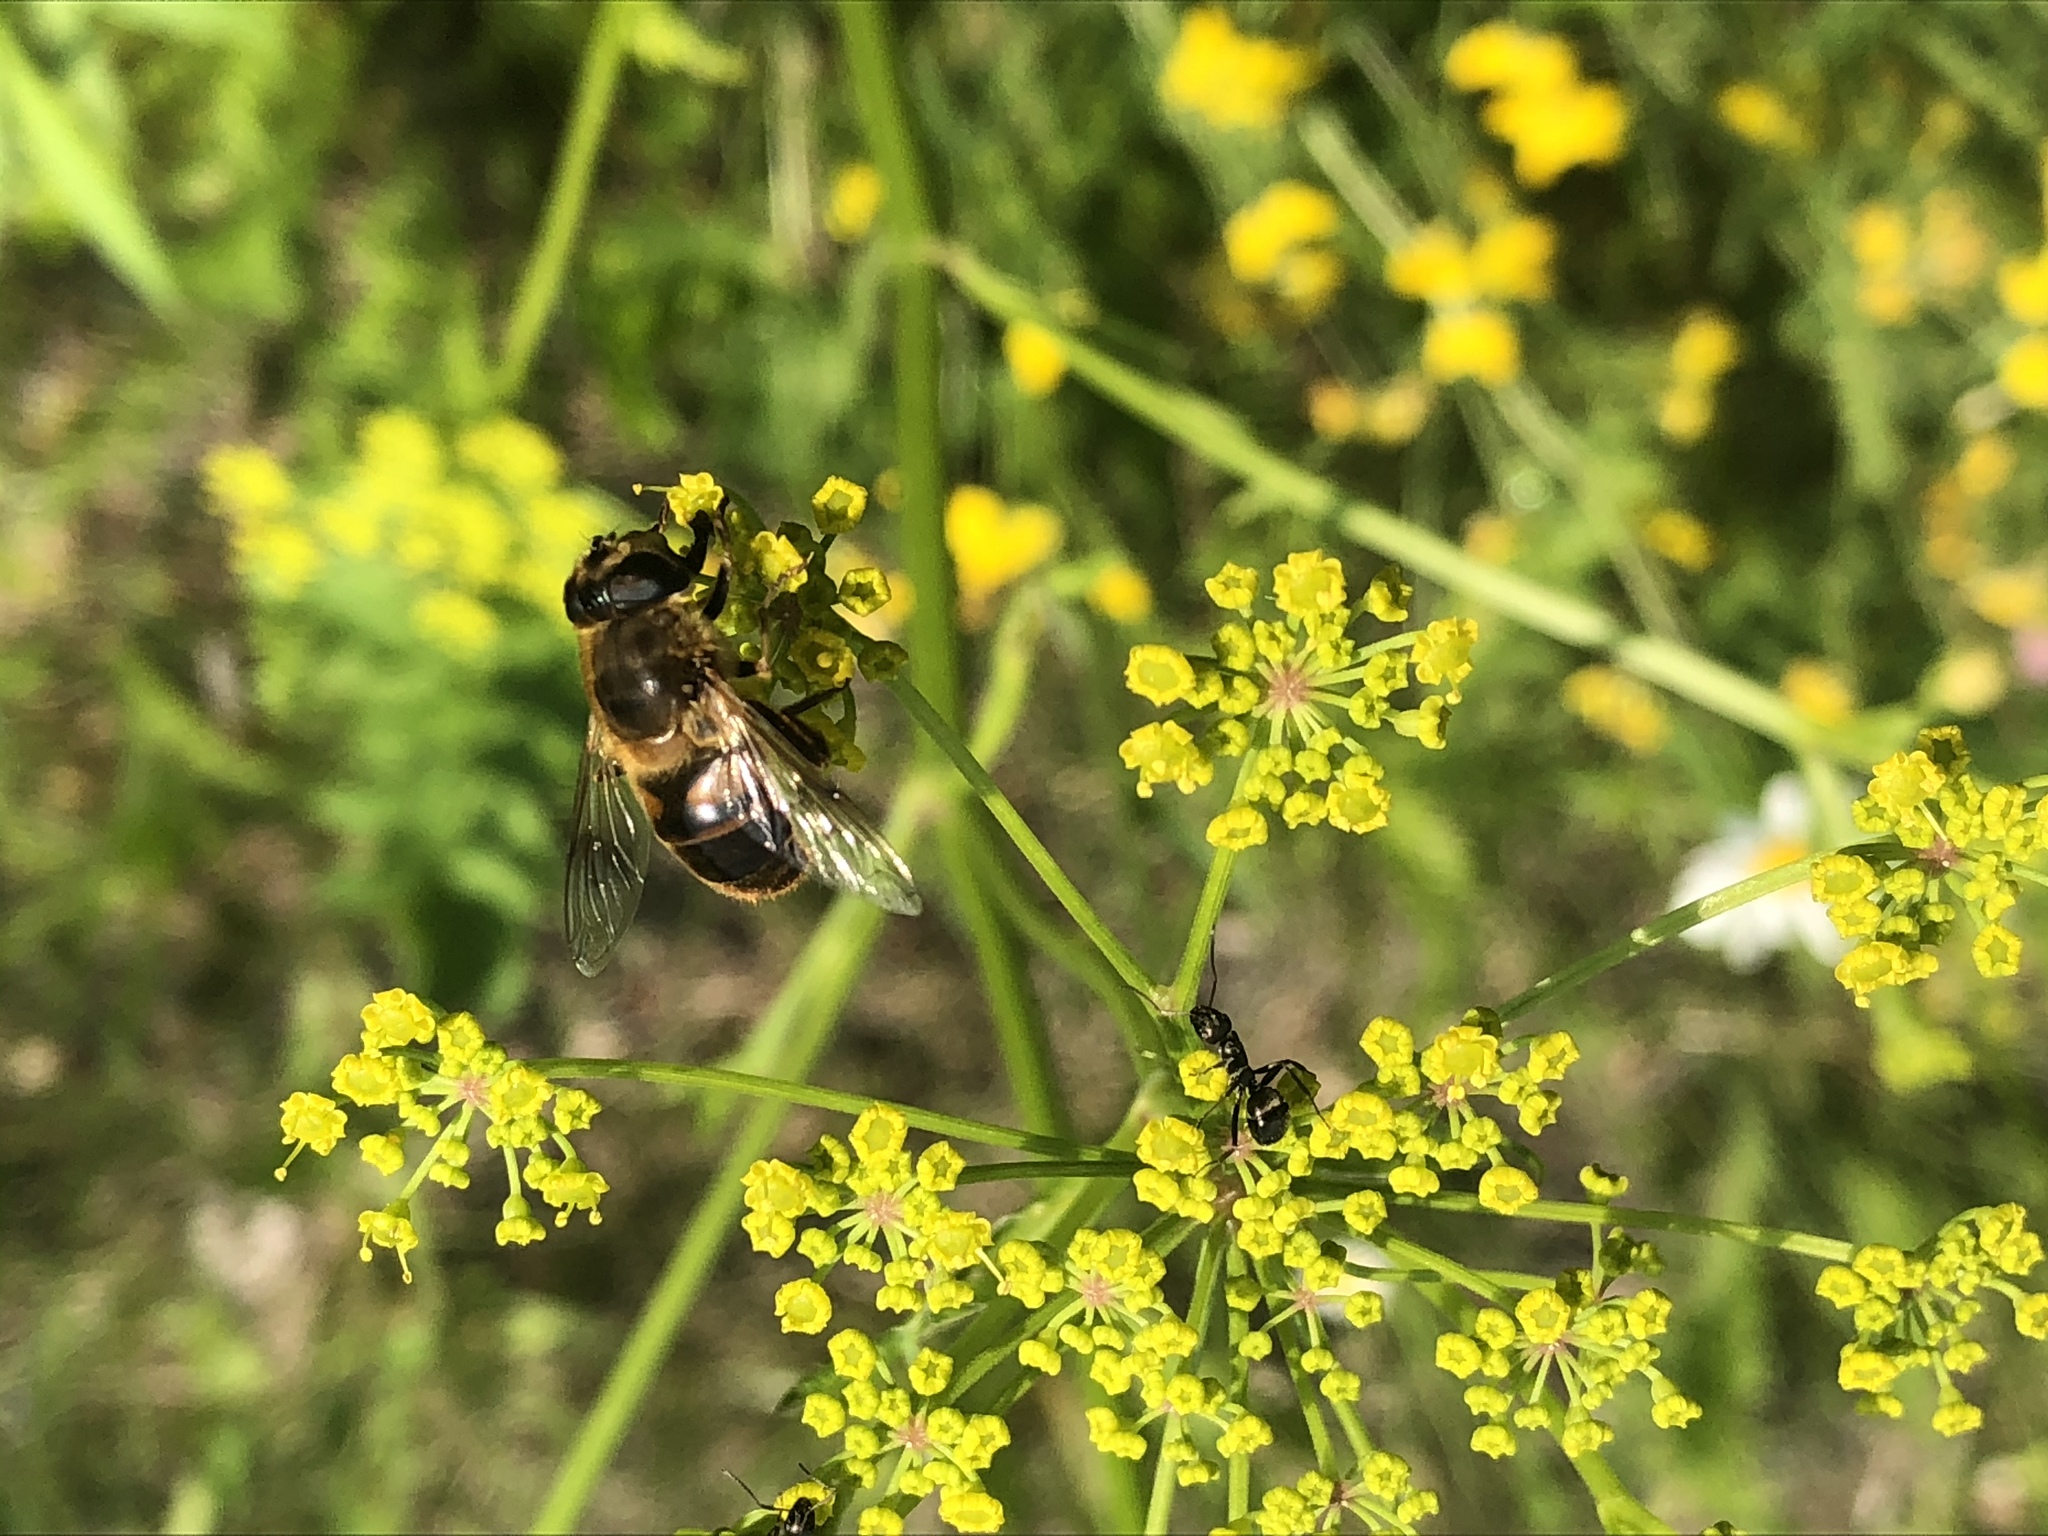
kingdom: Animalia
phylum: Arthropoda
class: Insecta
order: Diptera
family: Syrphidae
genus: Eristalis
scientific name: Eristalis tenax
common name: Drone fly
